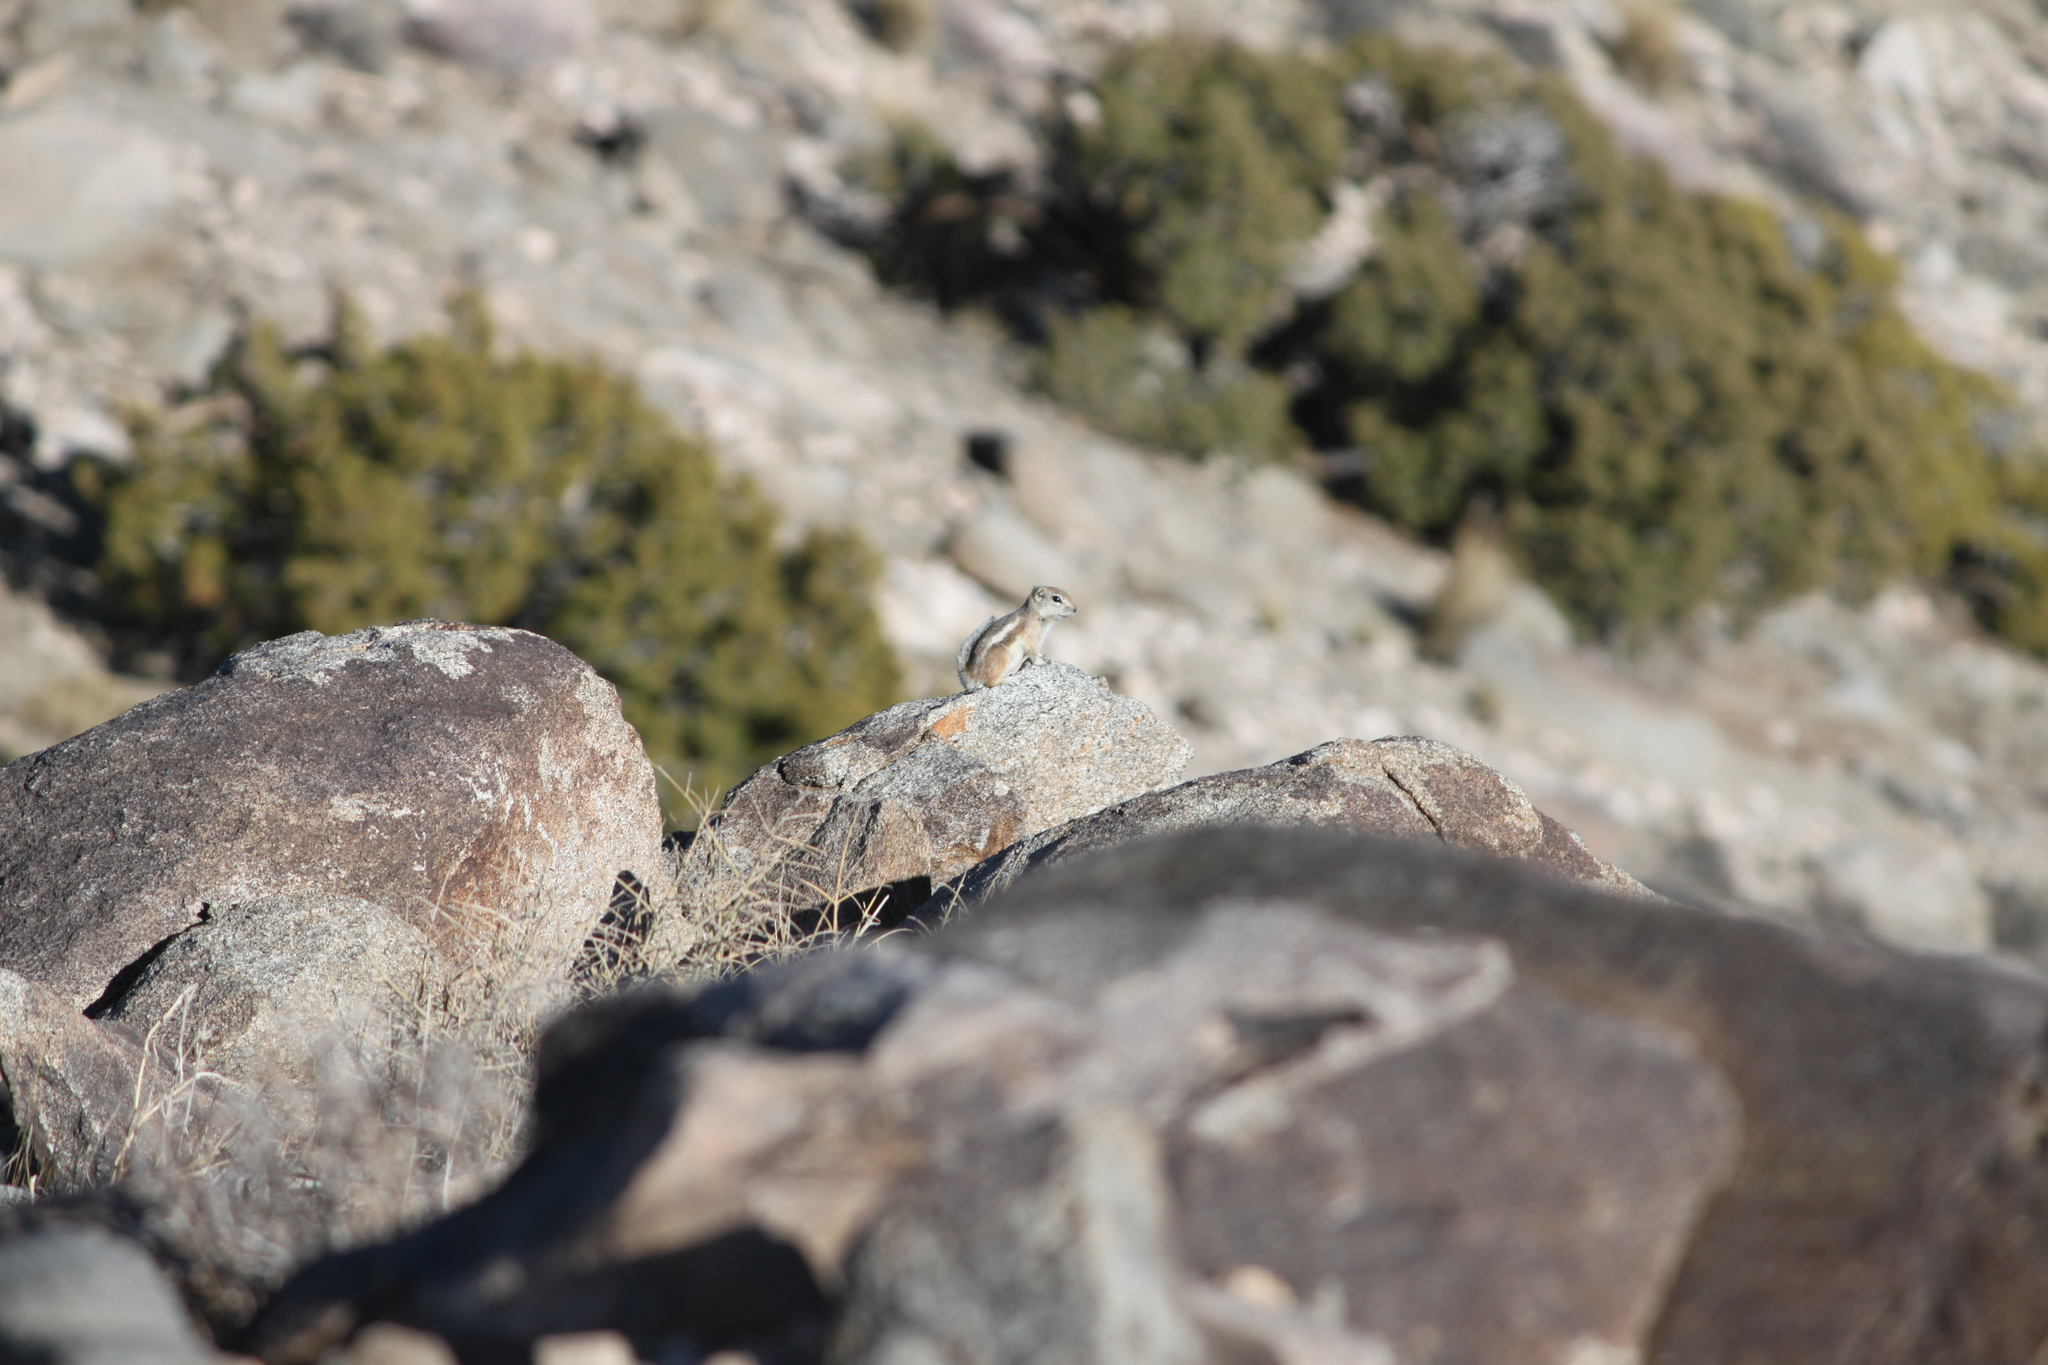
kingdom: Animalia
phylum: Chordata
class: Mammalia
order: Rodentia
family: Sciuridae
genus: Ammospermophilus
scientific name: Ammospermophilus leucurus
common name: White-tailed antelope squirrel
